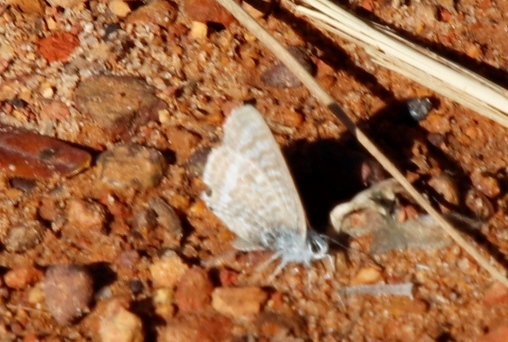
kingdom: Animalia
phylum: Arthropoda
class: Insecta
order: Lepidoptera
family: Lycaenidae
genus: Lampides
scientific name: Lampides boeticus
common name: Long-tailed blue
